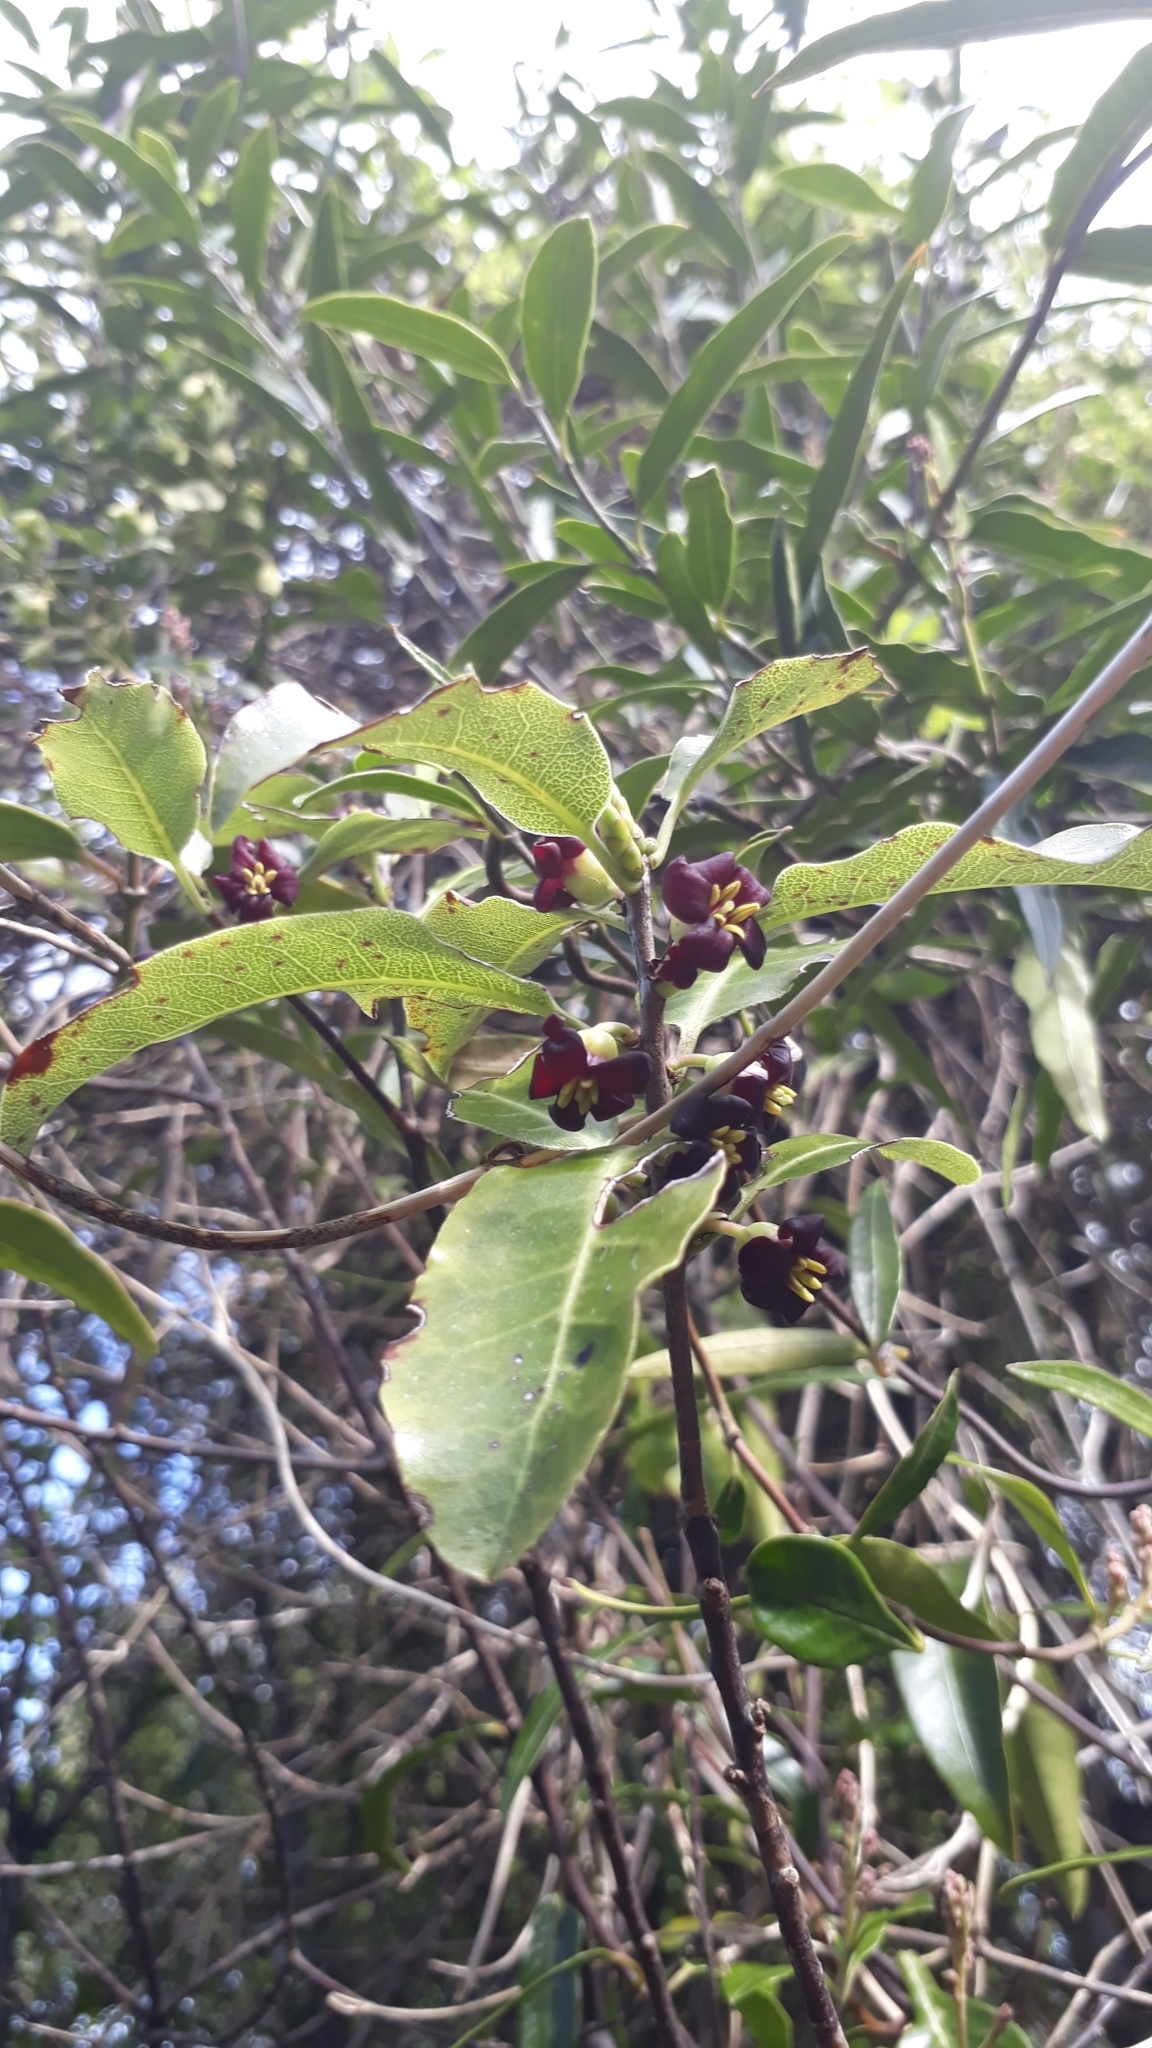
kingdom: Plantae
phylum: Tracheophyta
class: Magnoliopsida
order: Apiales
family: Pittosporaceae
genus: Pittosporum
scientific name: Pittosporum tenuifolium
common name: Kohuhu
